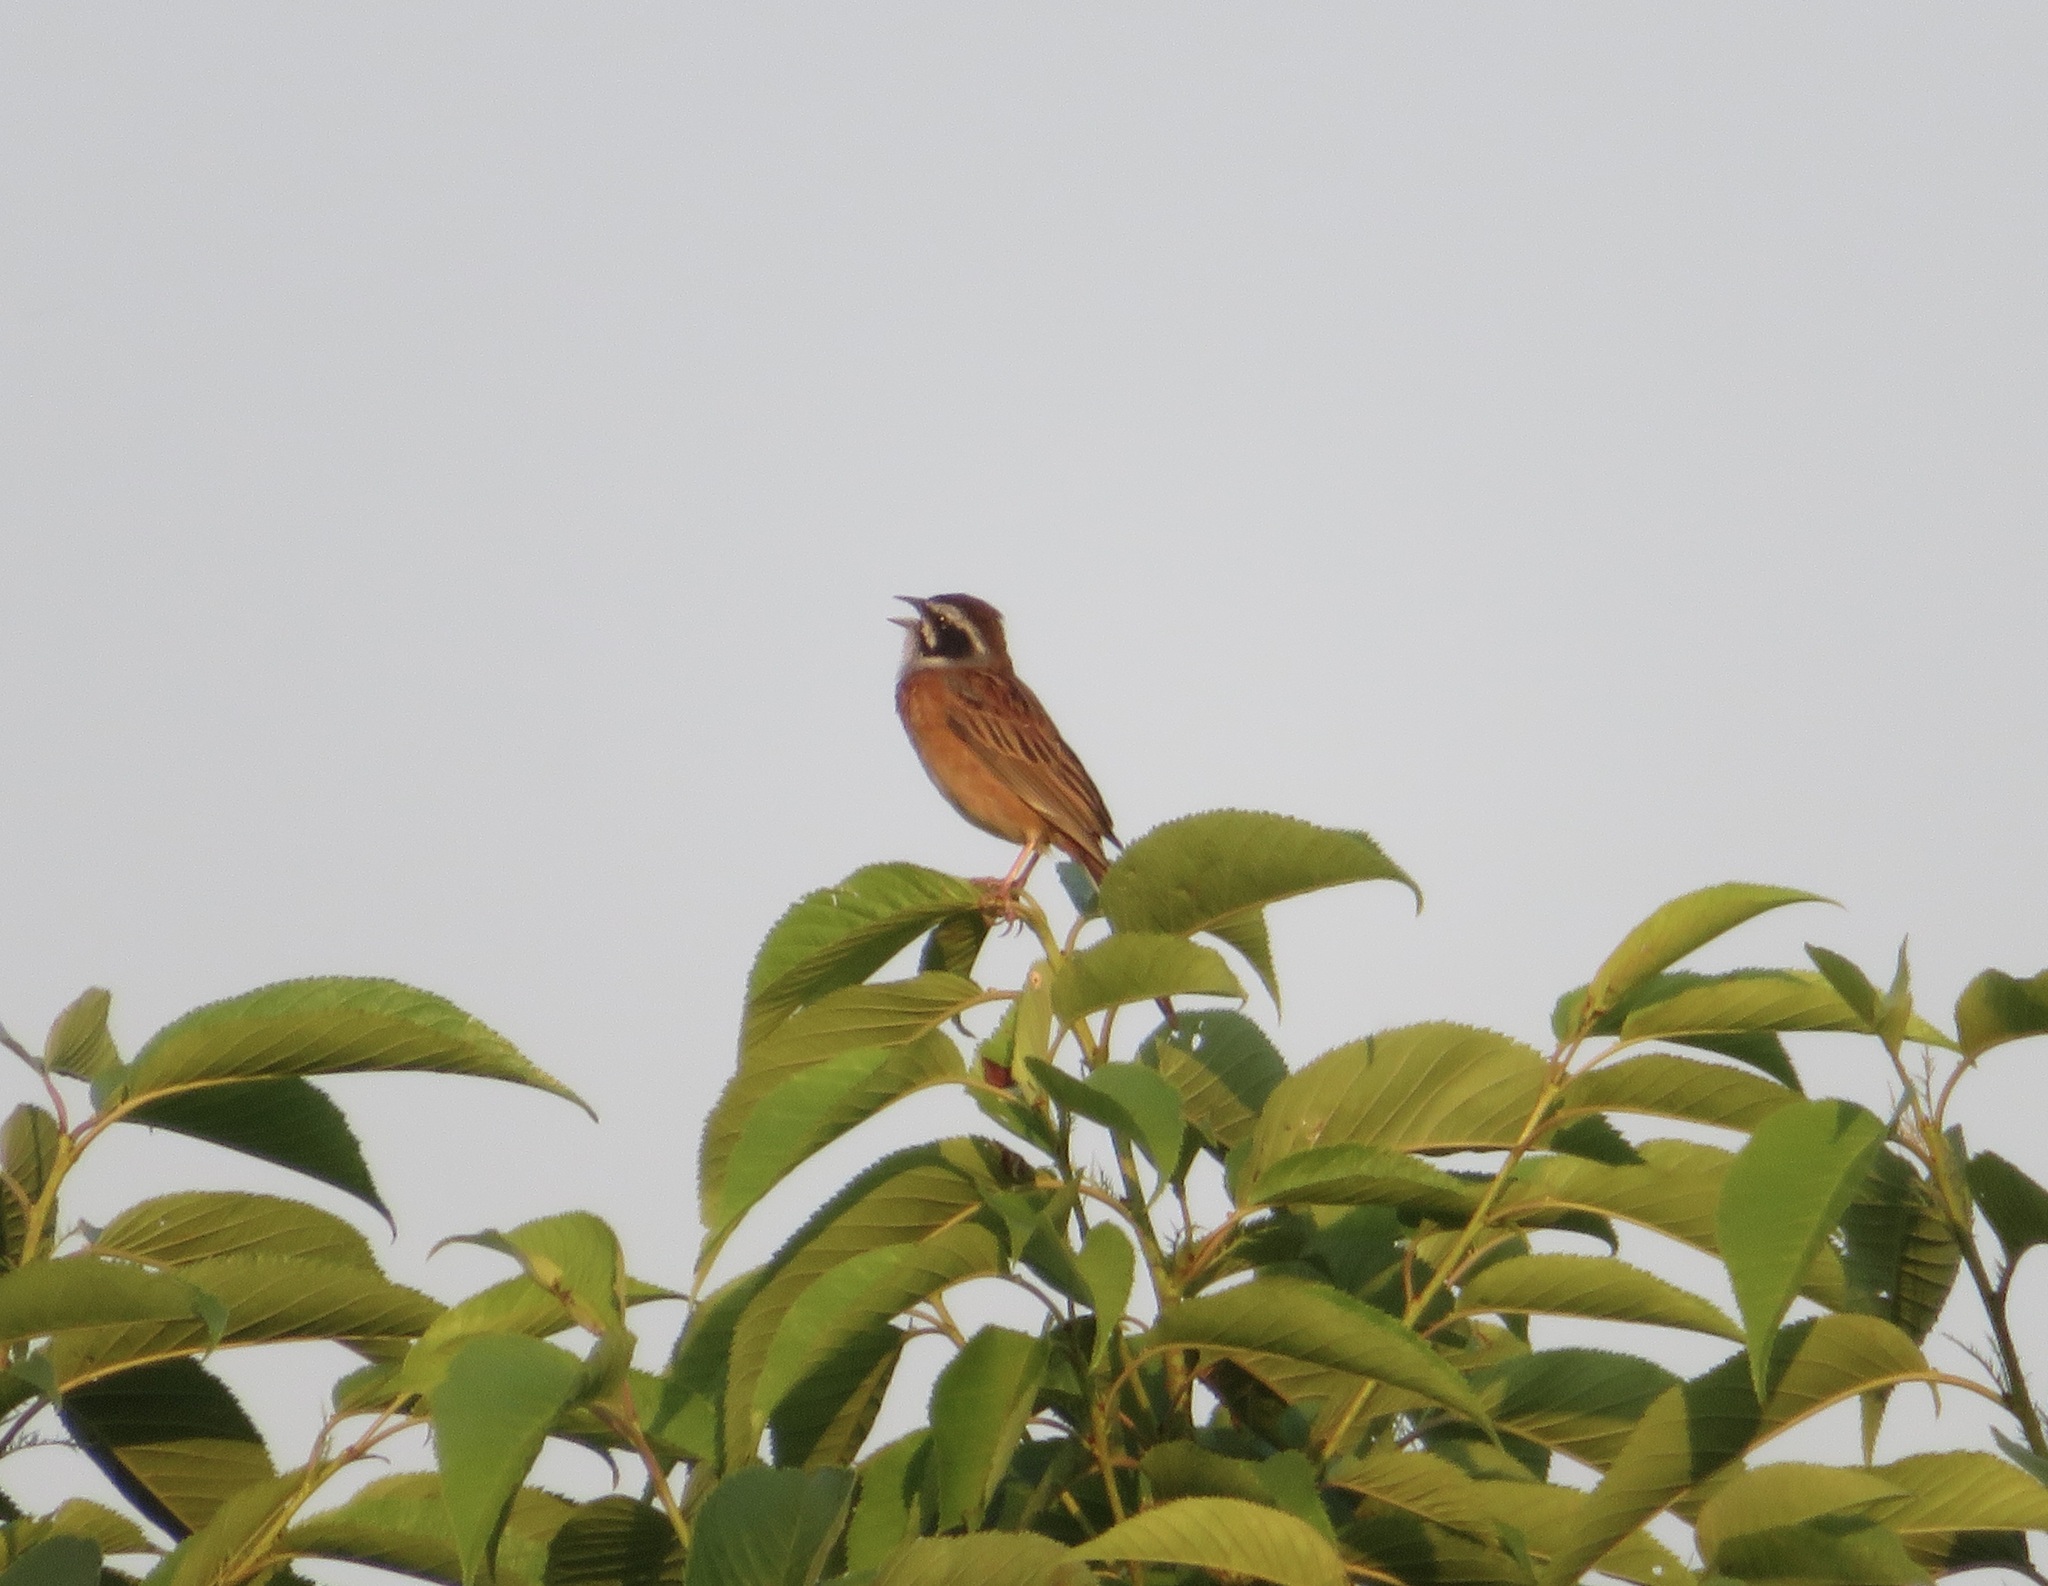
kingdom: Animalia
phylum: Chordata
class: Aves
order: Passeriformes
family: Emberizidae
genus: Emberiza
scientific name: Emberiza cioides
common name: Meadow bunting
